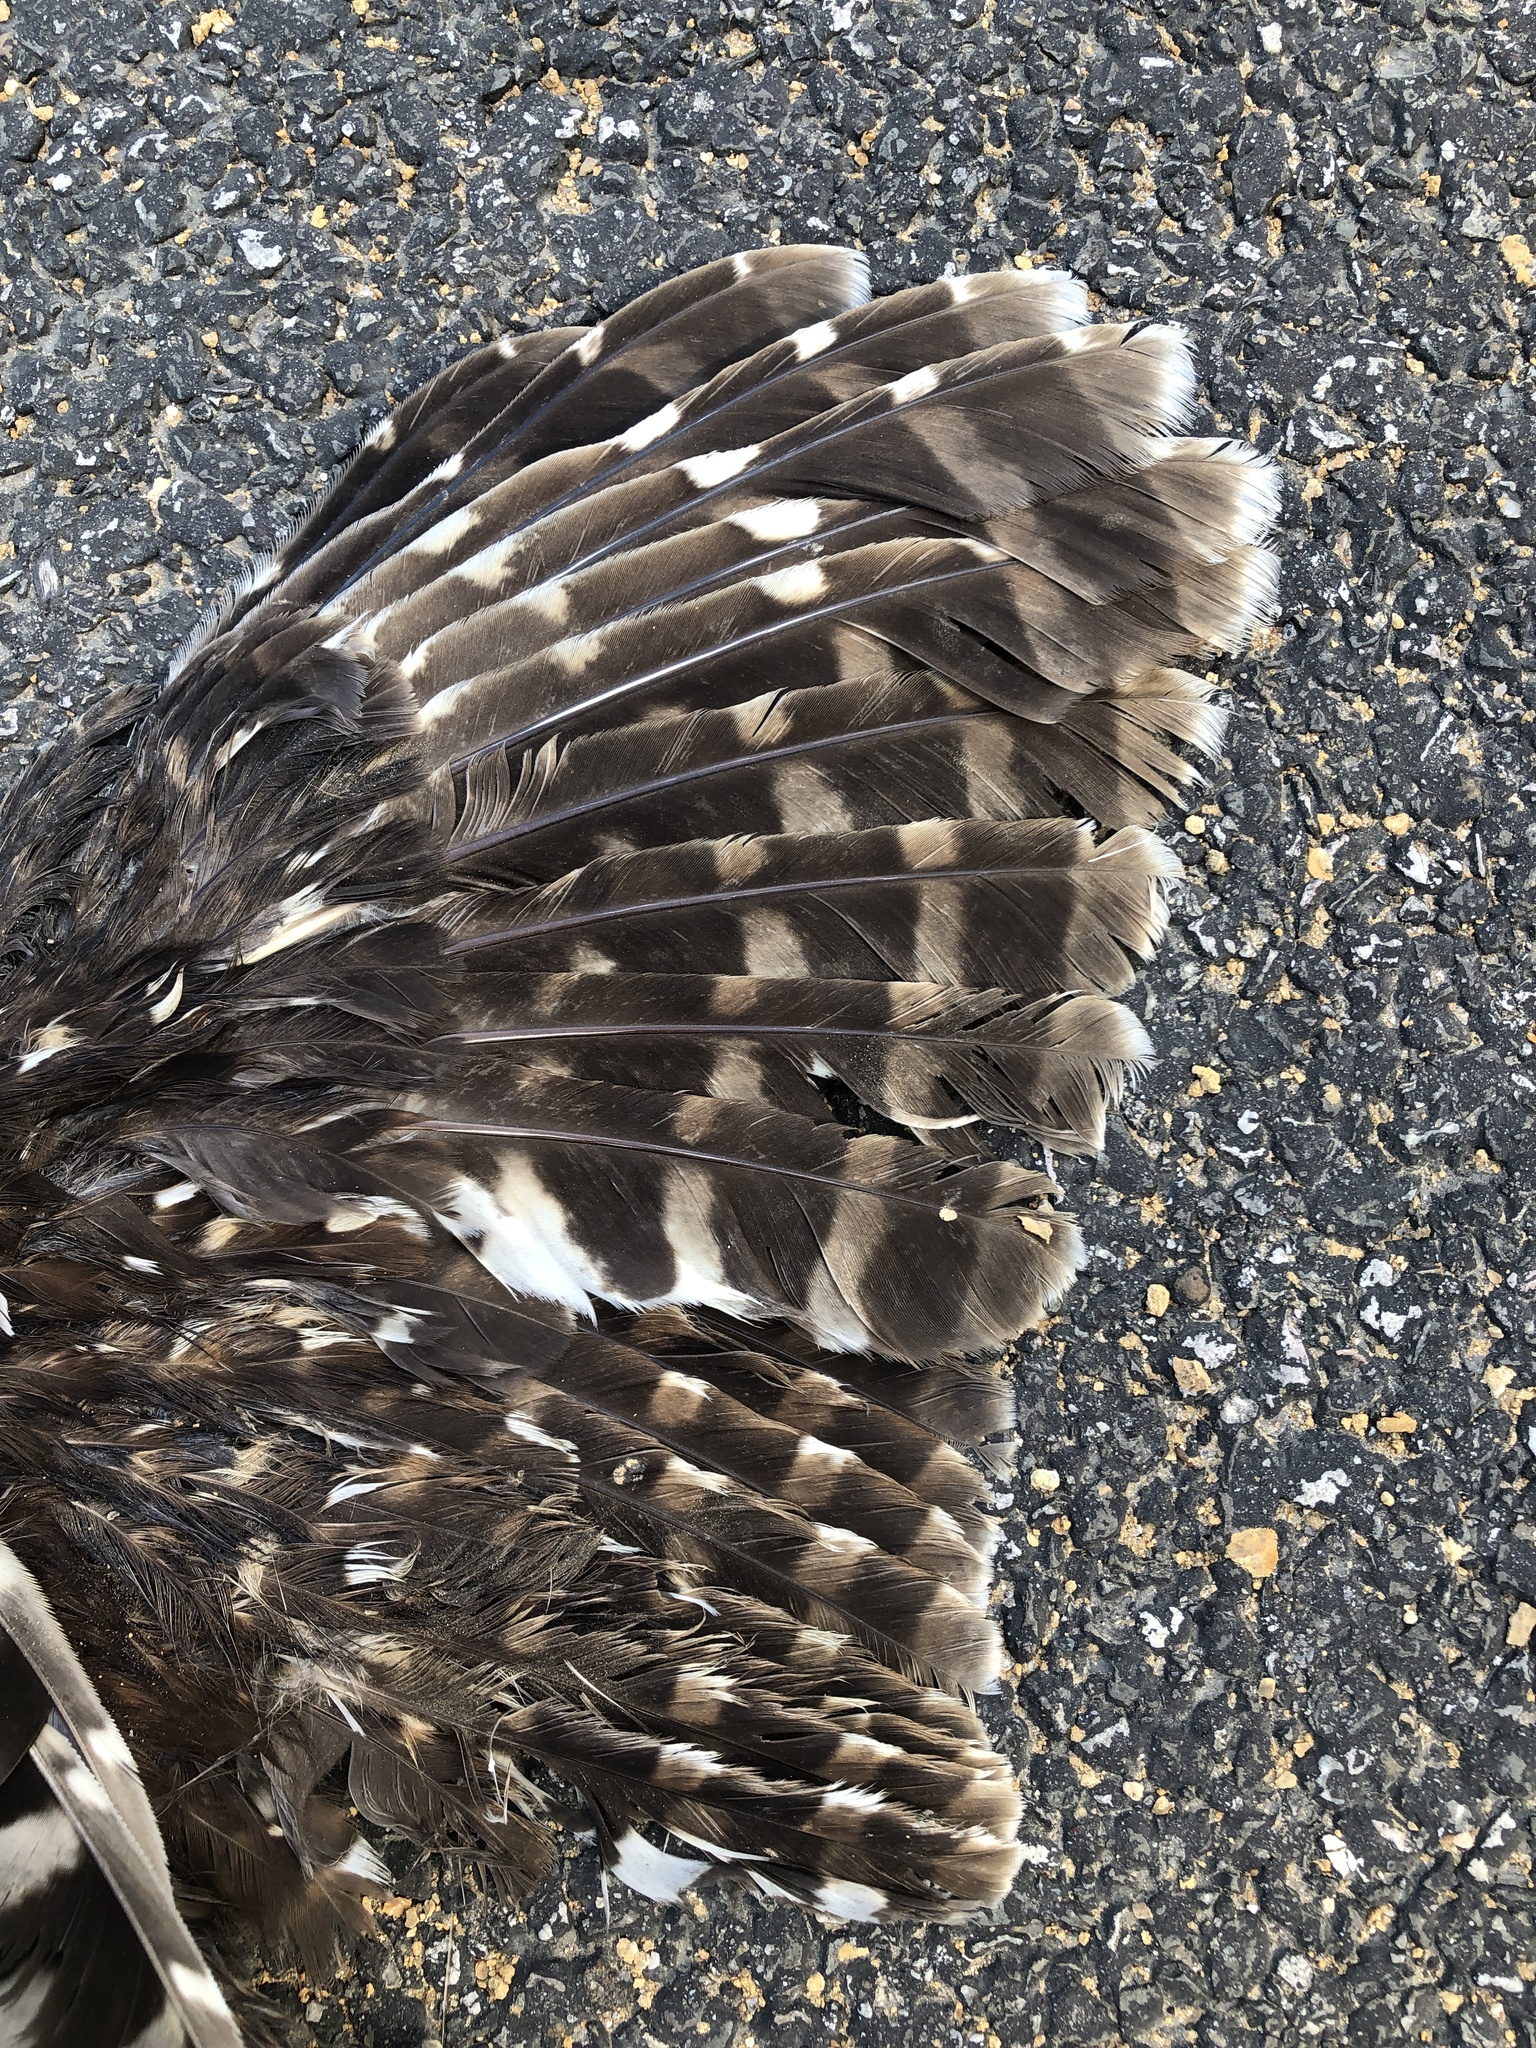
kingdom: Animalia
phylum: Chordata
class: Aves
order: Strigiformes
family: Strigidae
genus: Strix
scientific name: Strix varia
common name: Barred owl
